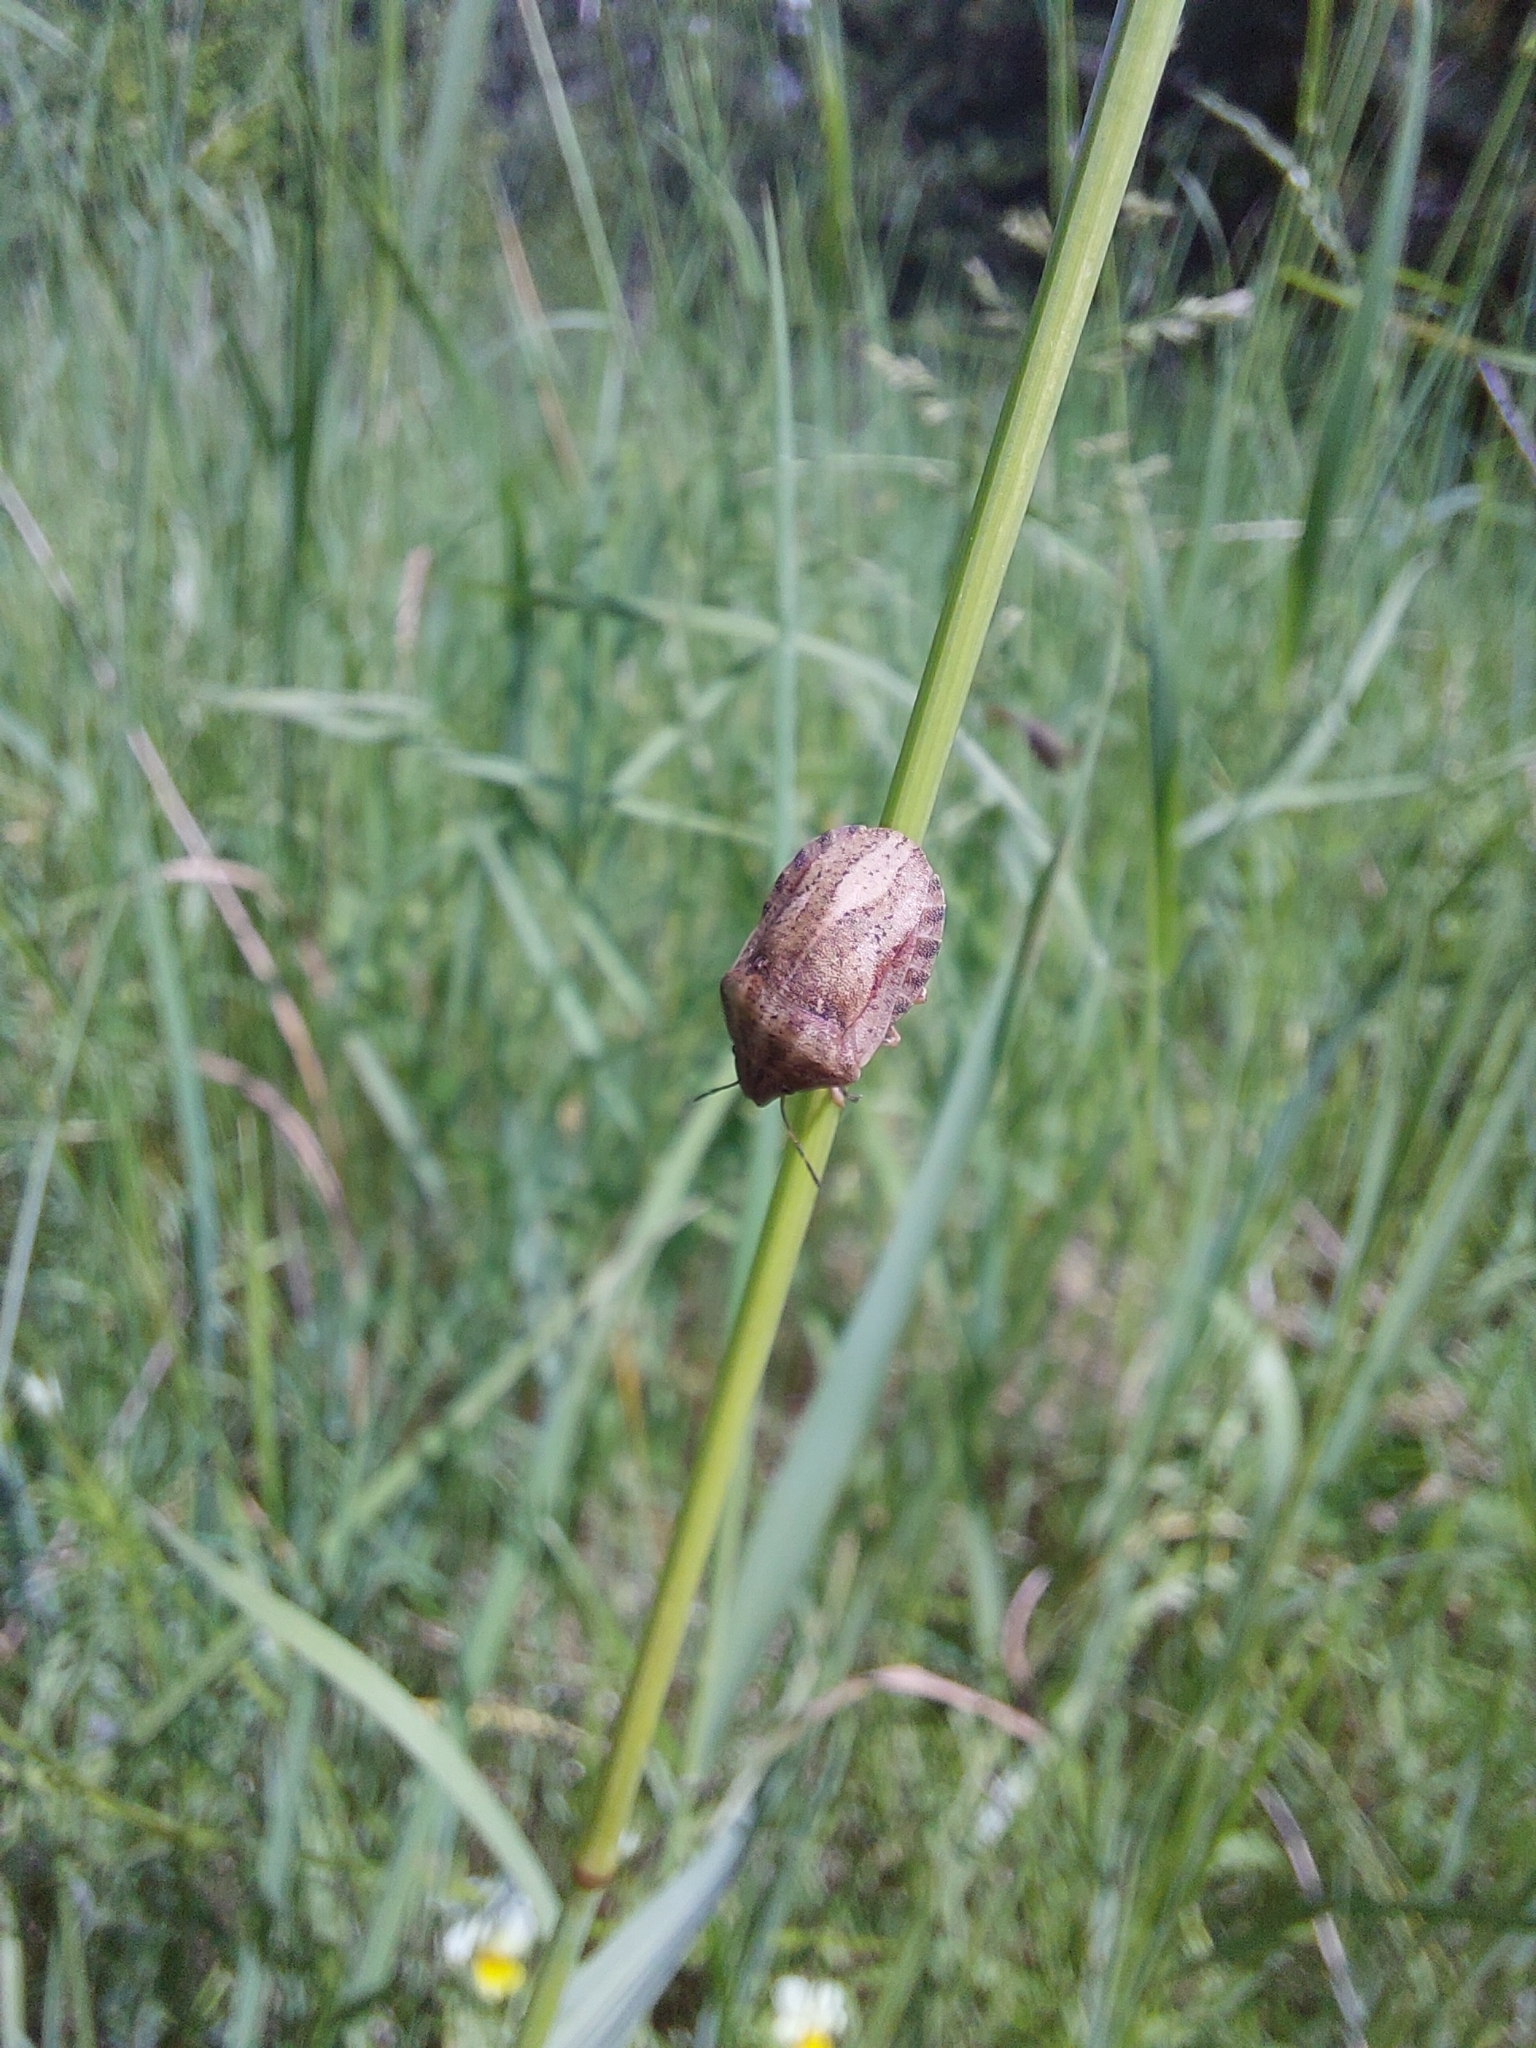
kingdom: Animalia
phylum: Arthropoda
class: Insecta
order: Hemiptera
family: Scutelleridae
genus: Eurygaster
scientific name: Eurygaster testudinaria
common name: Tortoise bug
